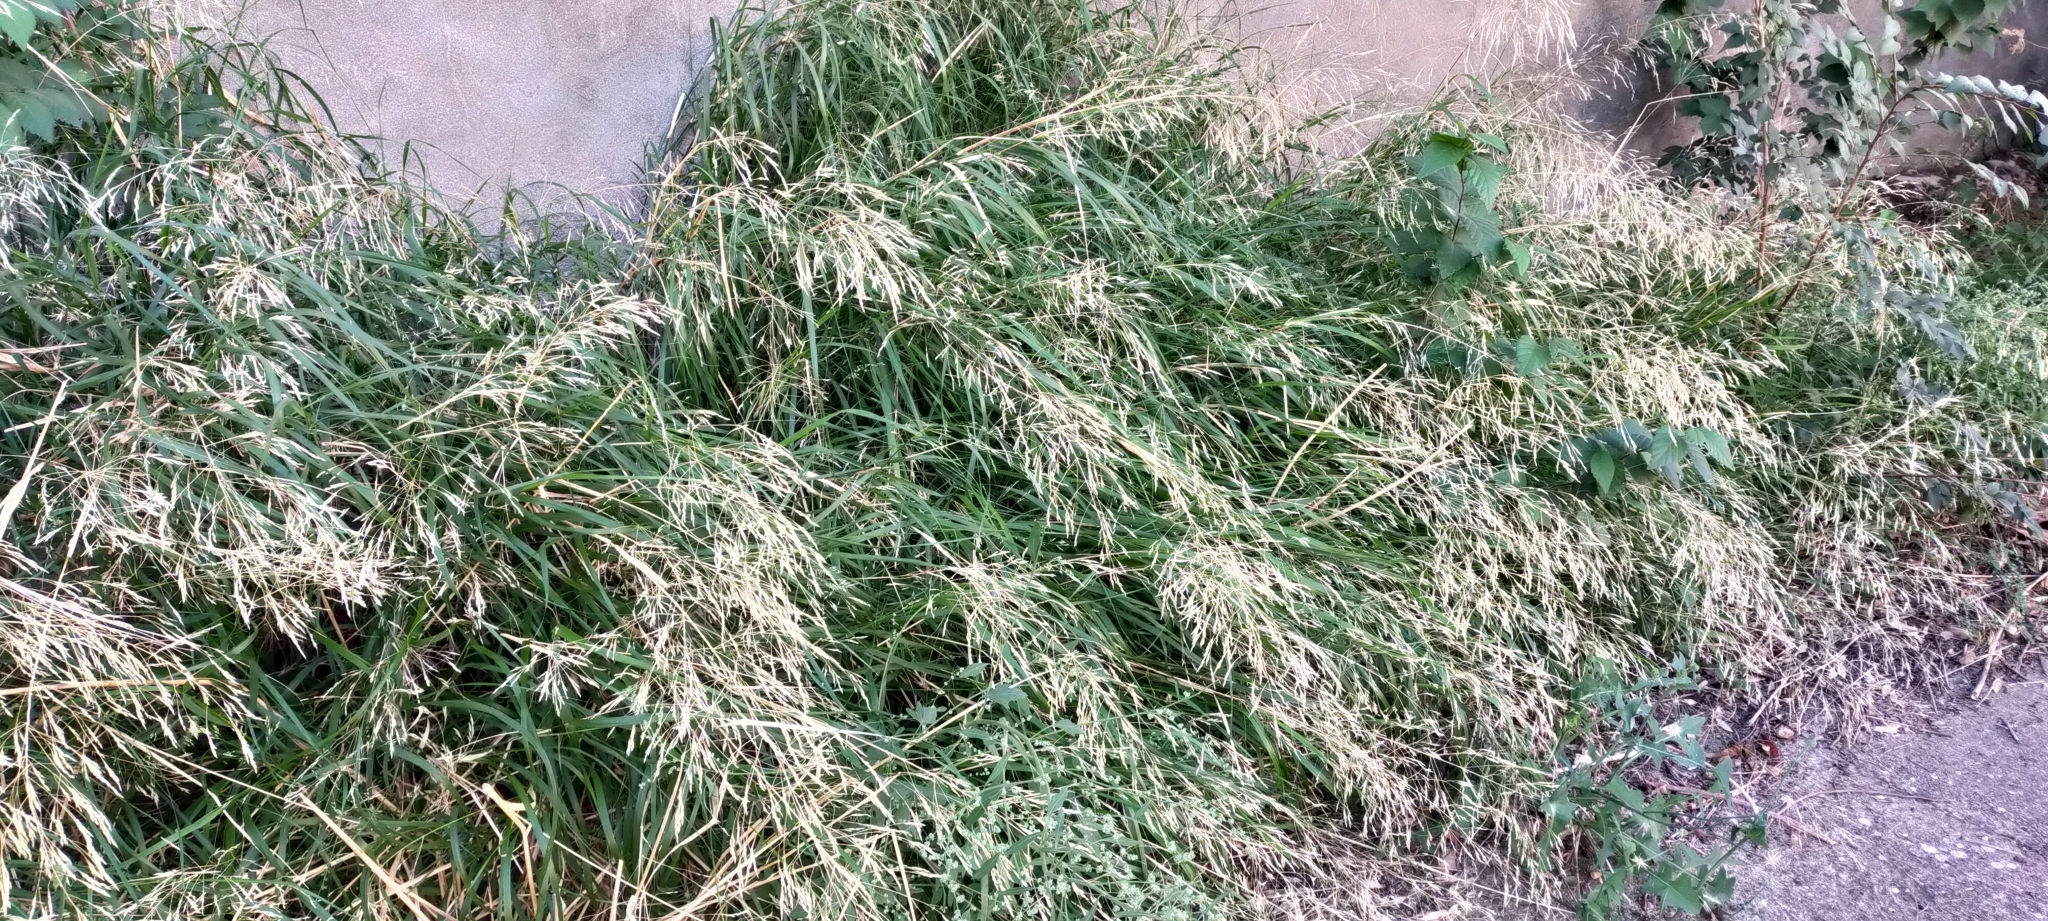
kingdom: Plantae
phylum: Tracheophyta
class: Liliopsida
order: Poales
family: Poaceae
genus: Oloptum
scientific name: Oloptum miliaceum
